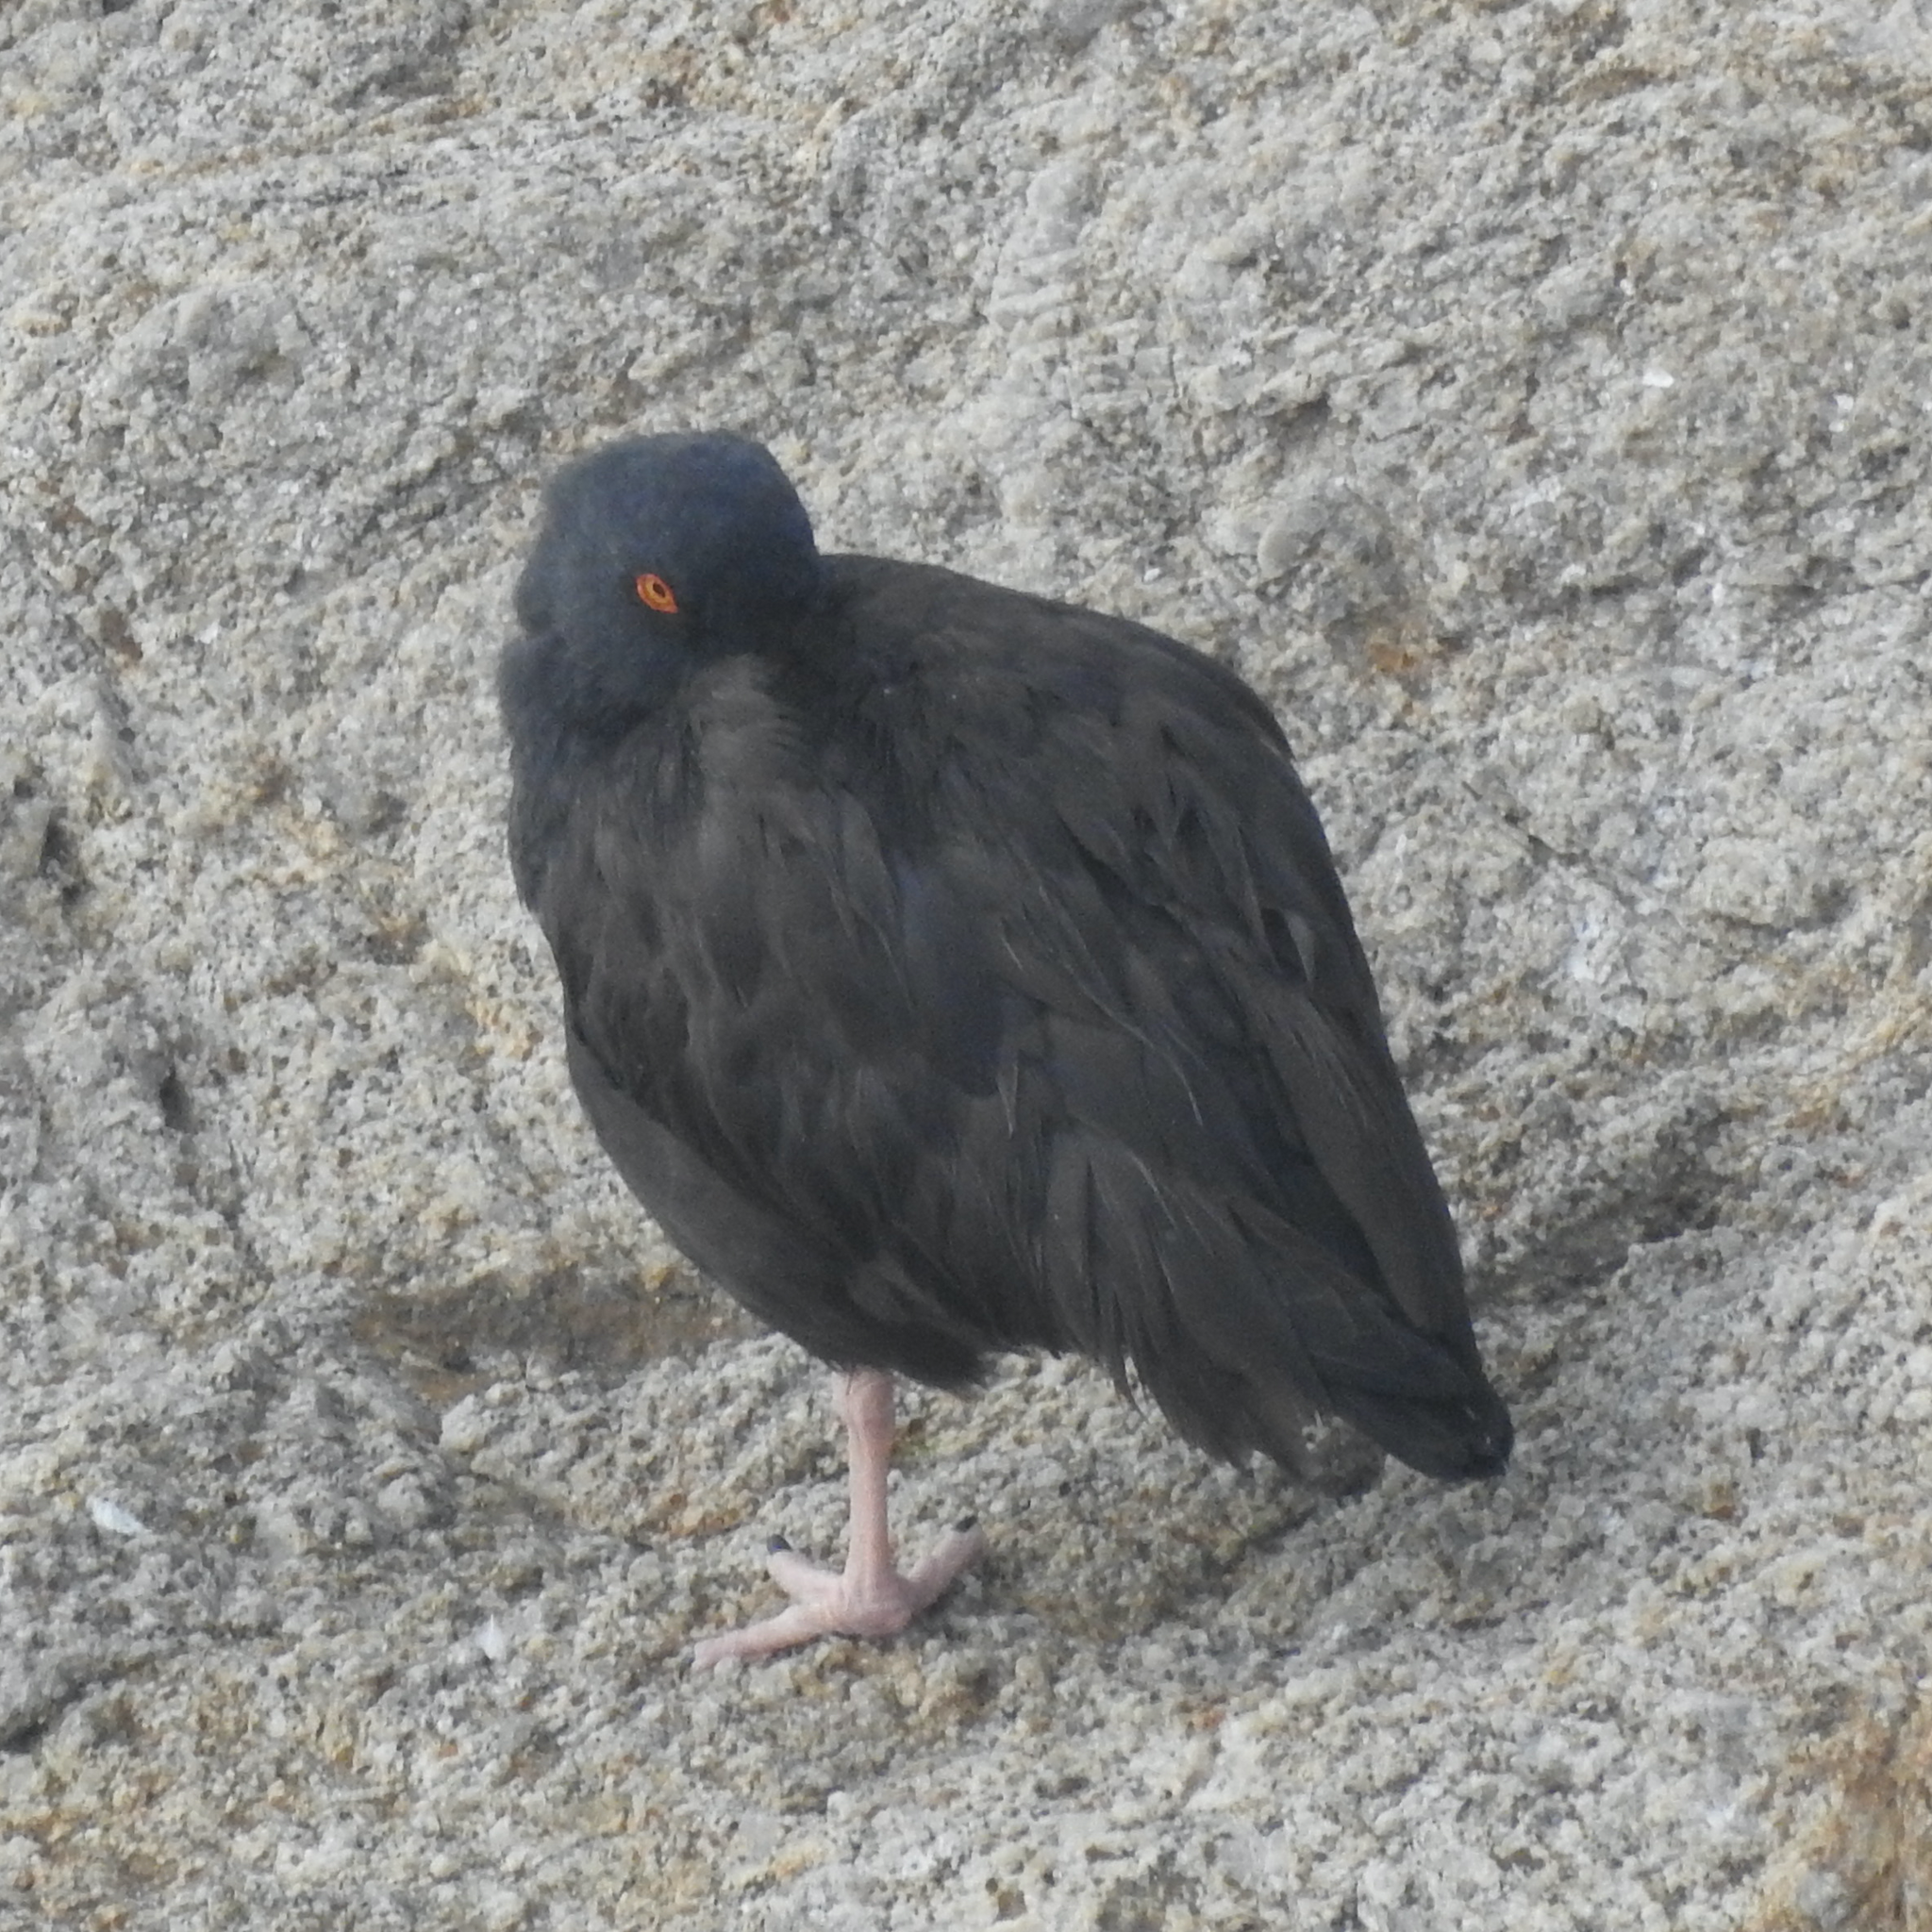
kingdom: Animalia
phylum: Chordata
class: Aves
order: Charadriiformes
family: Haematopodidae
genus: Haematopus
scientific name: Haematopus bachmani
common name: Black oystercatcher
